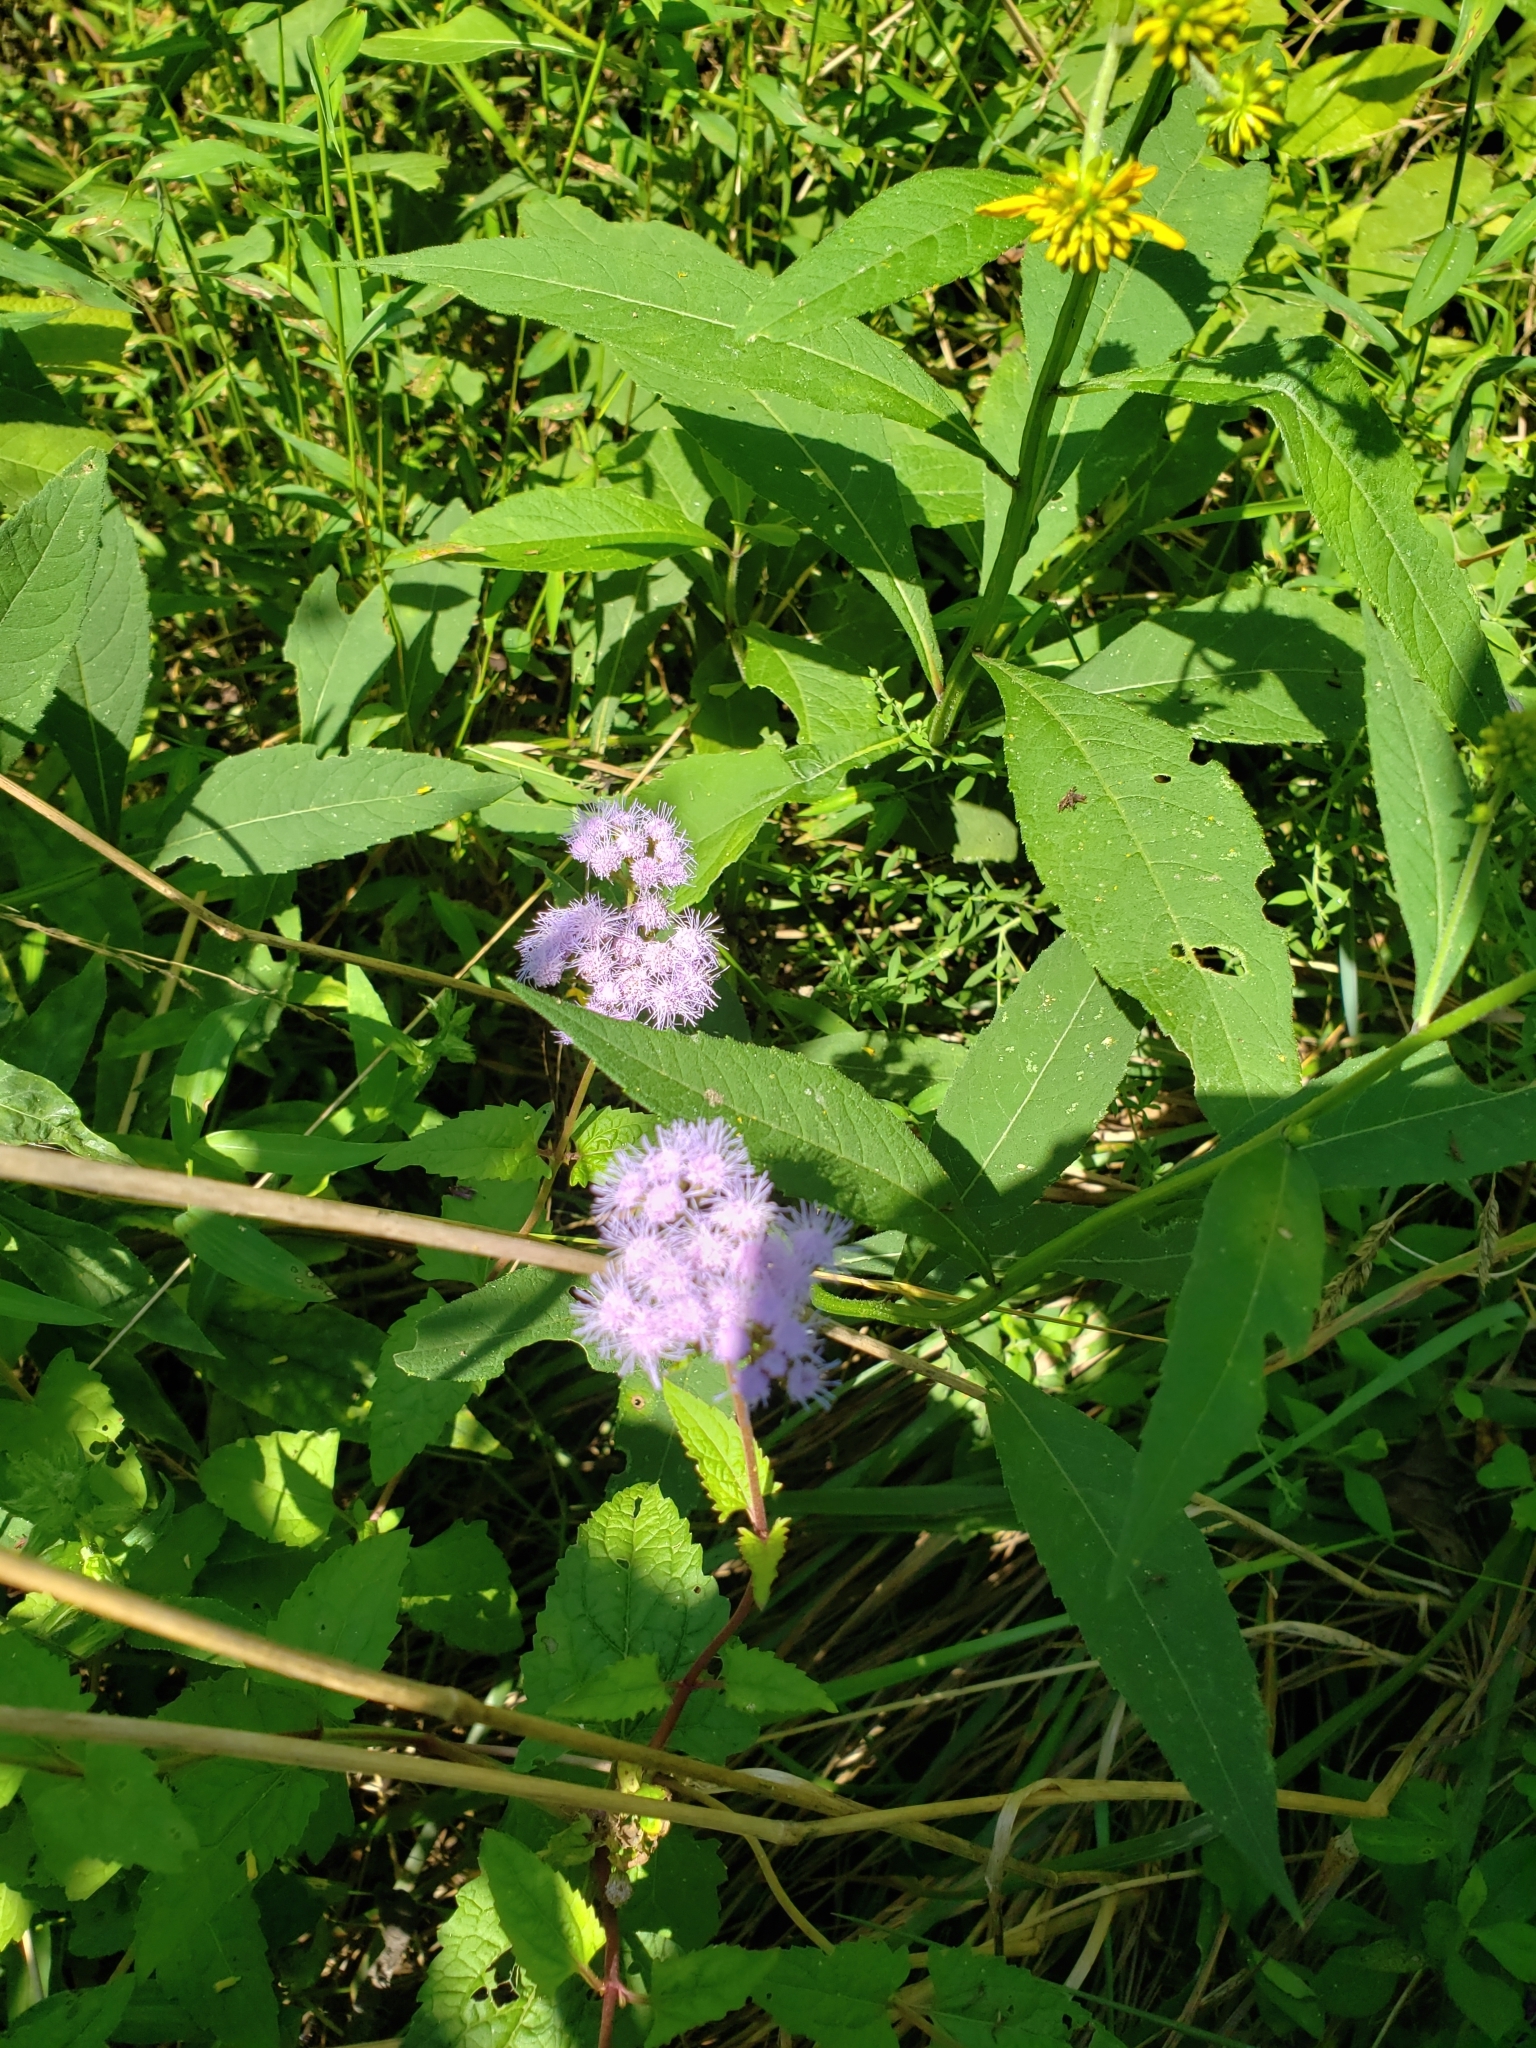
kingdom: Plantae
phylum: Tracheophyta
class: Magnoliopsida
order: Asterales
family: Asteraceae
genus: Conoclinium
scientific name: Conoclinium coelestinum
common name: Blue mistflower
